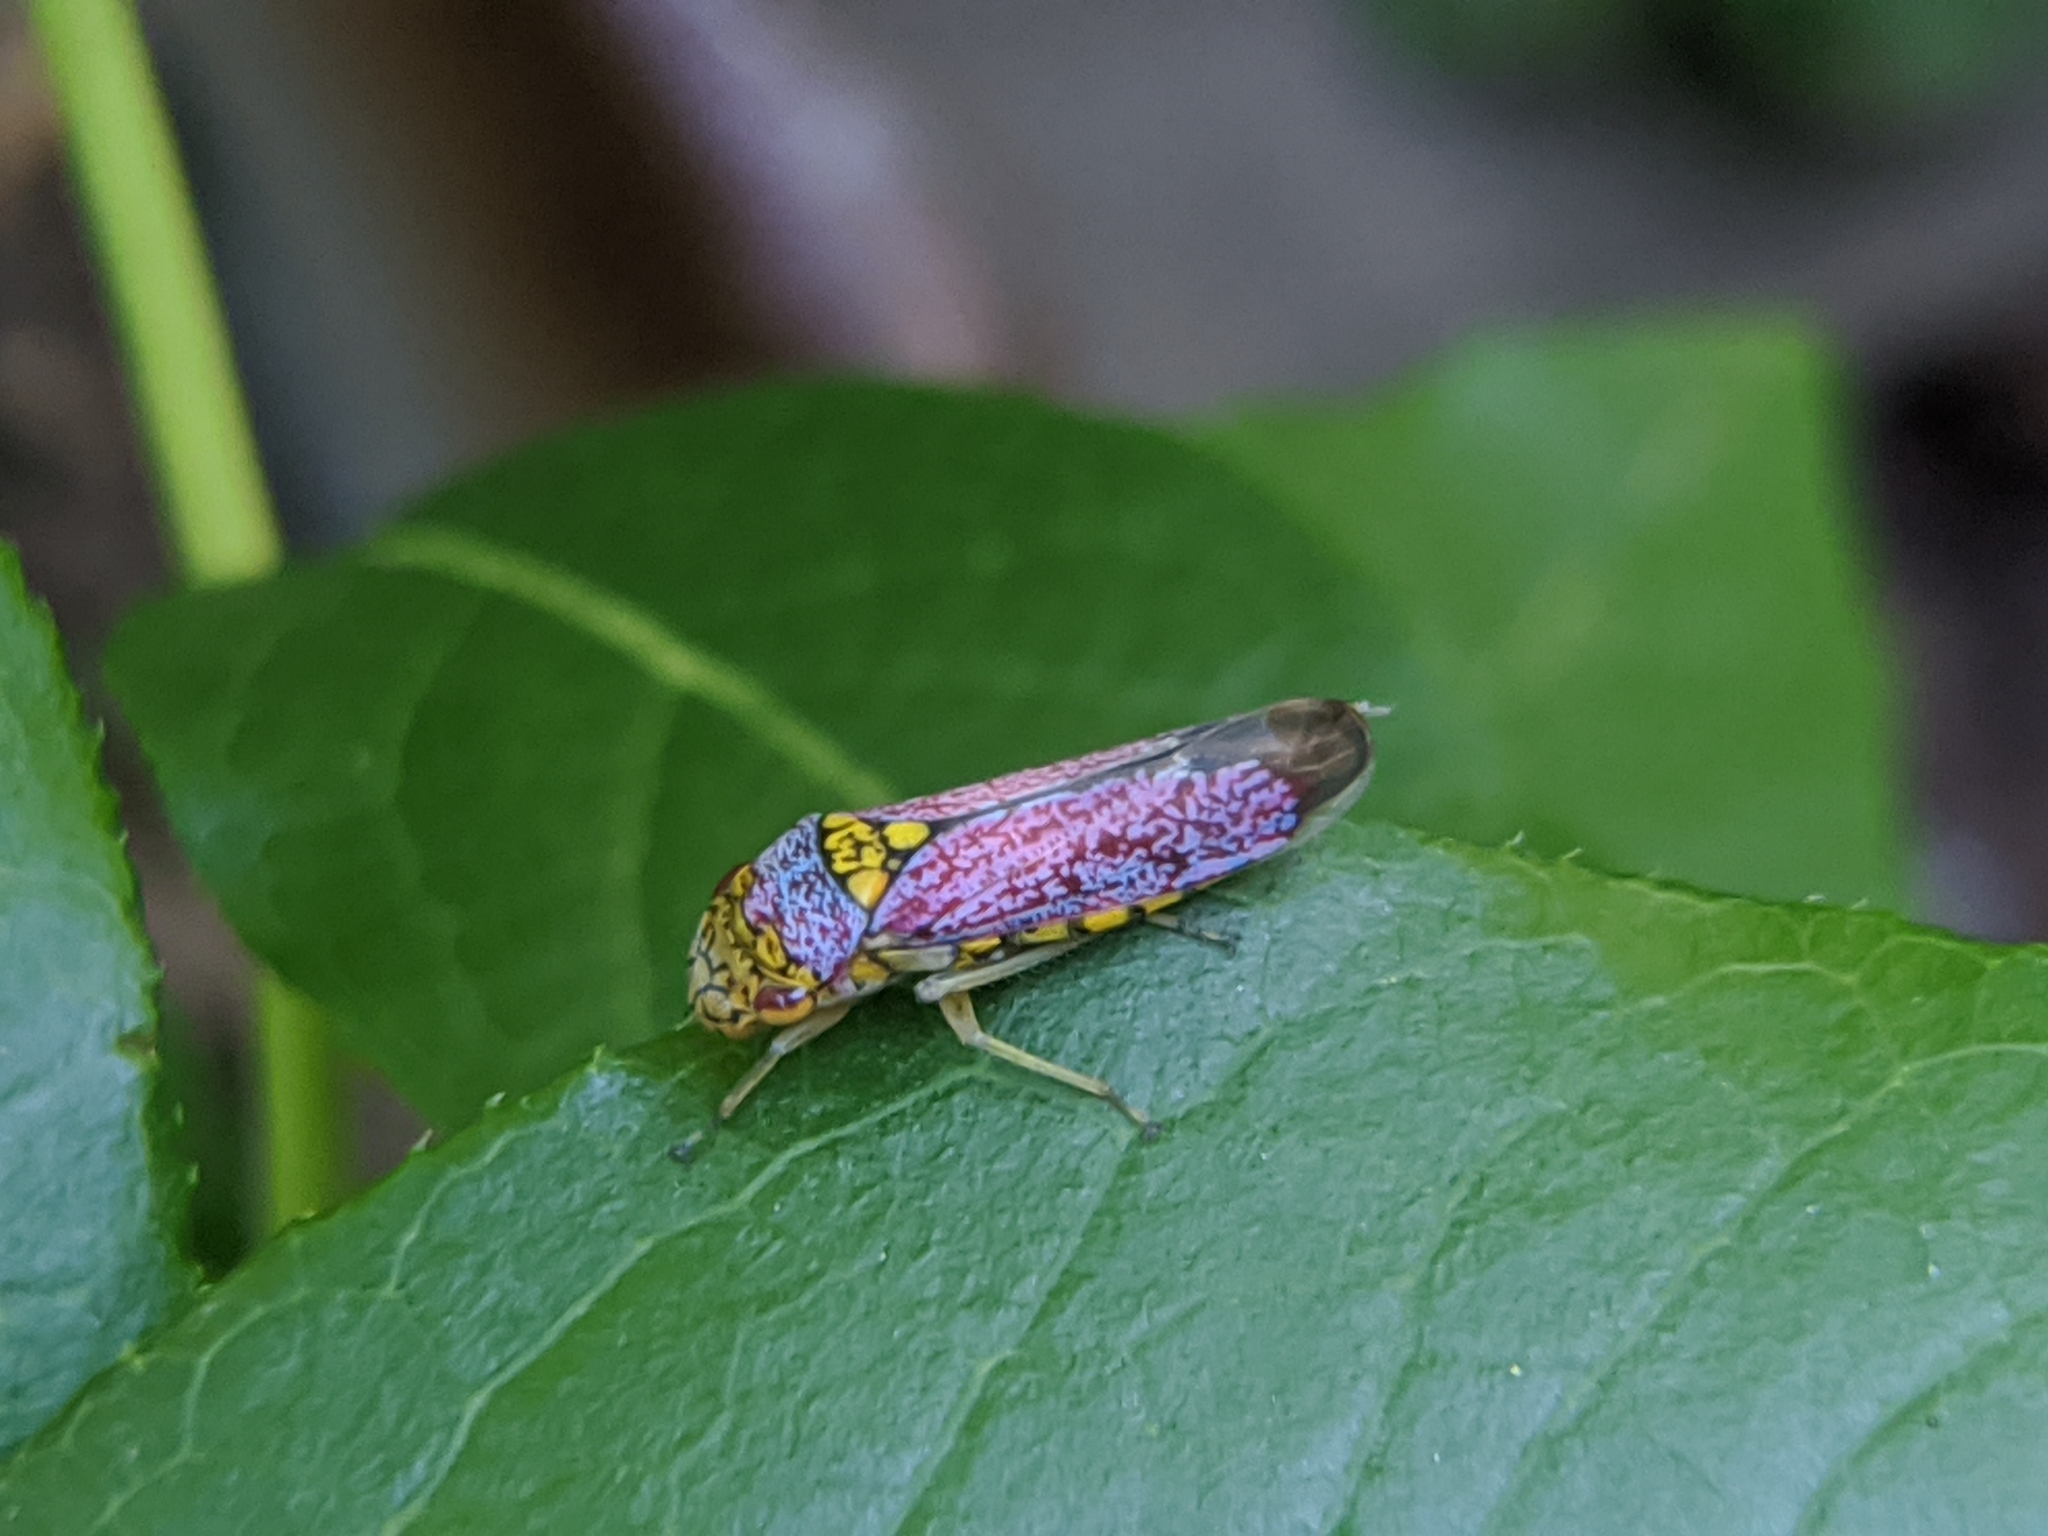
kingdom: Animalia
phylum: Arthropoda
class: Insecta
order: Hemiptera
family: Cicadellidae
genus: Oncometopia
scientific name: Oncometopia orbona
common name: Broad-headed sharpshooter
